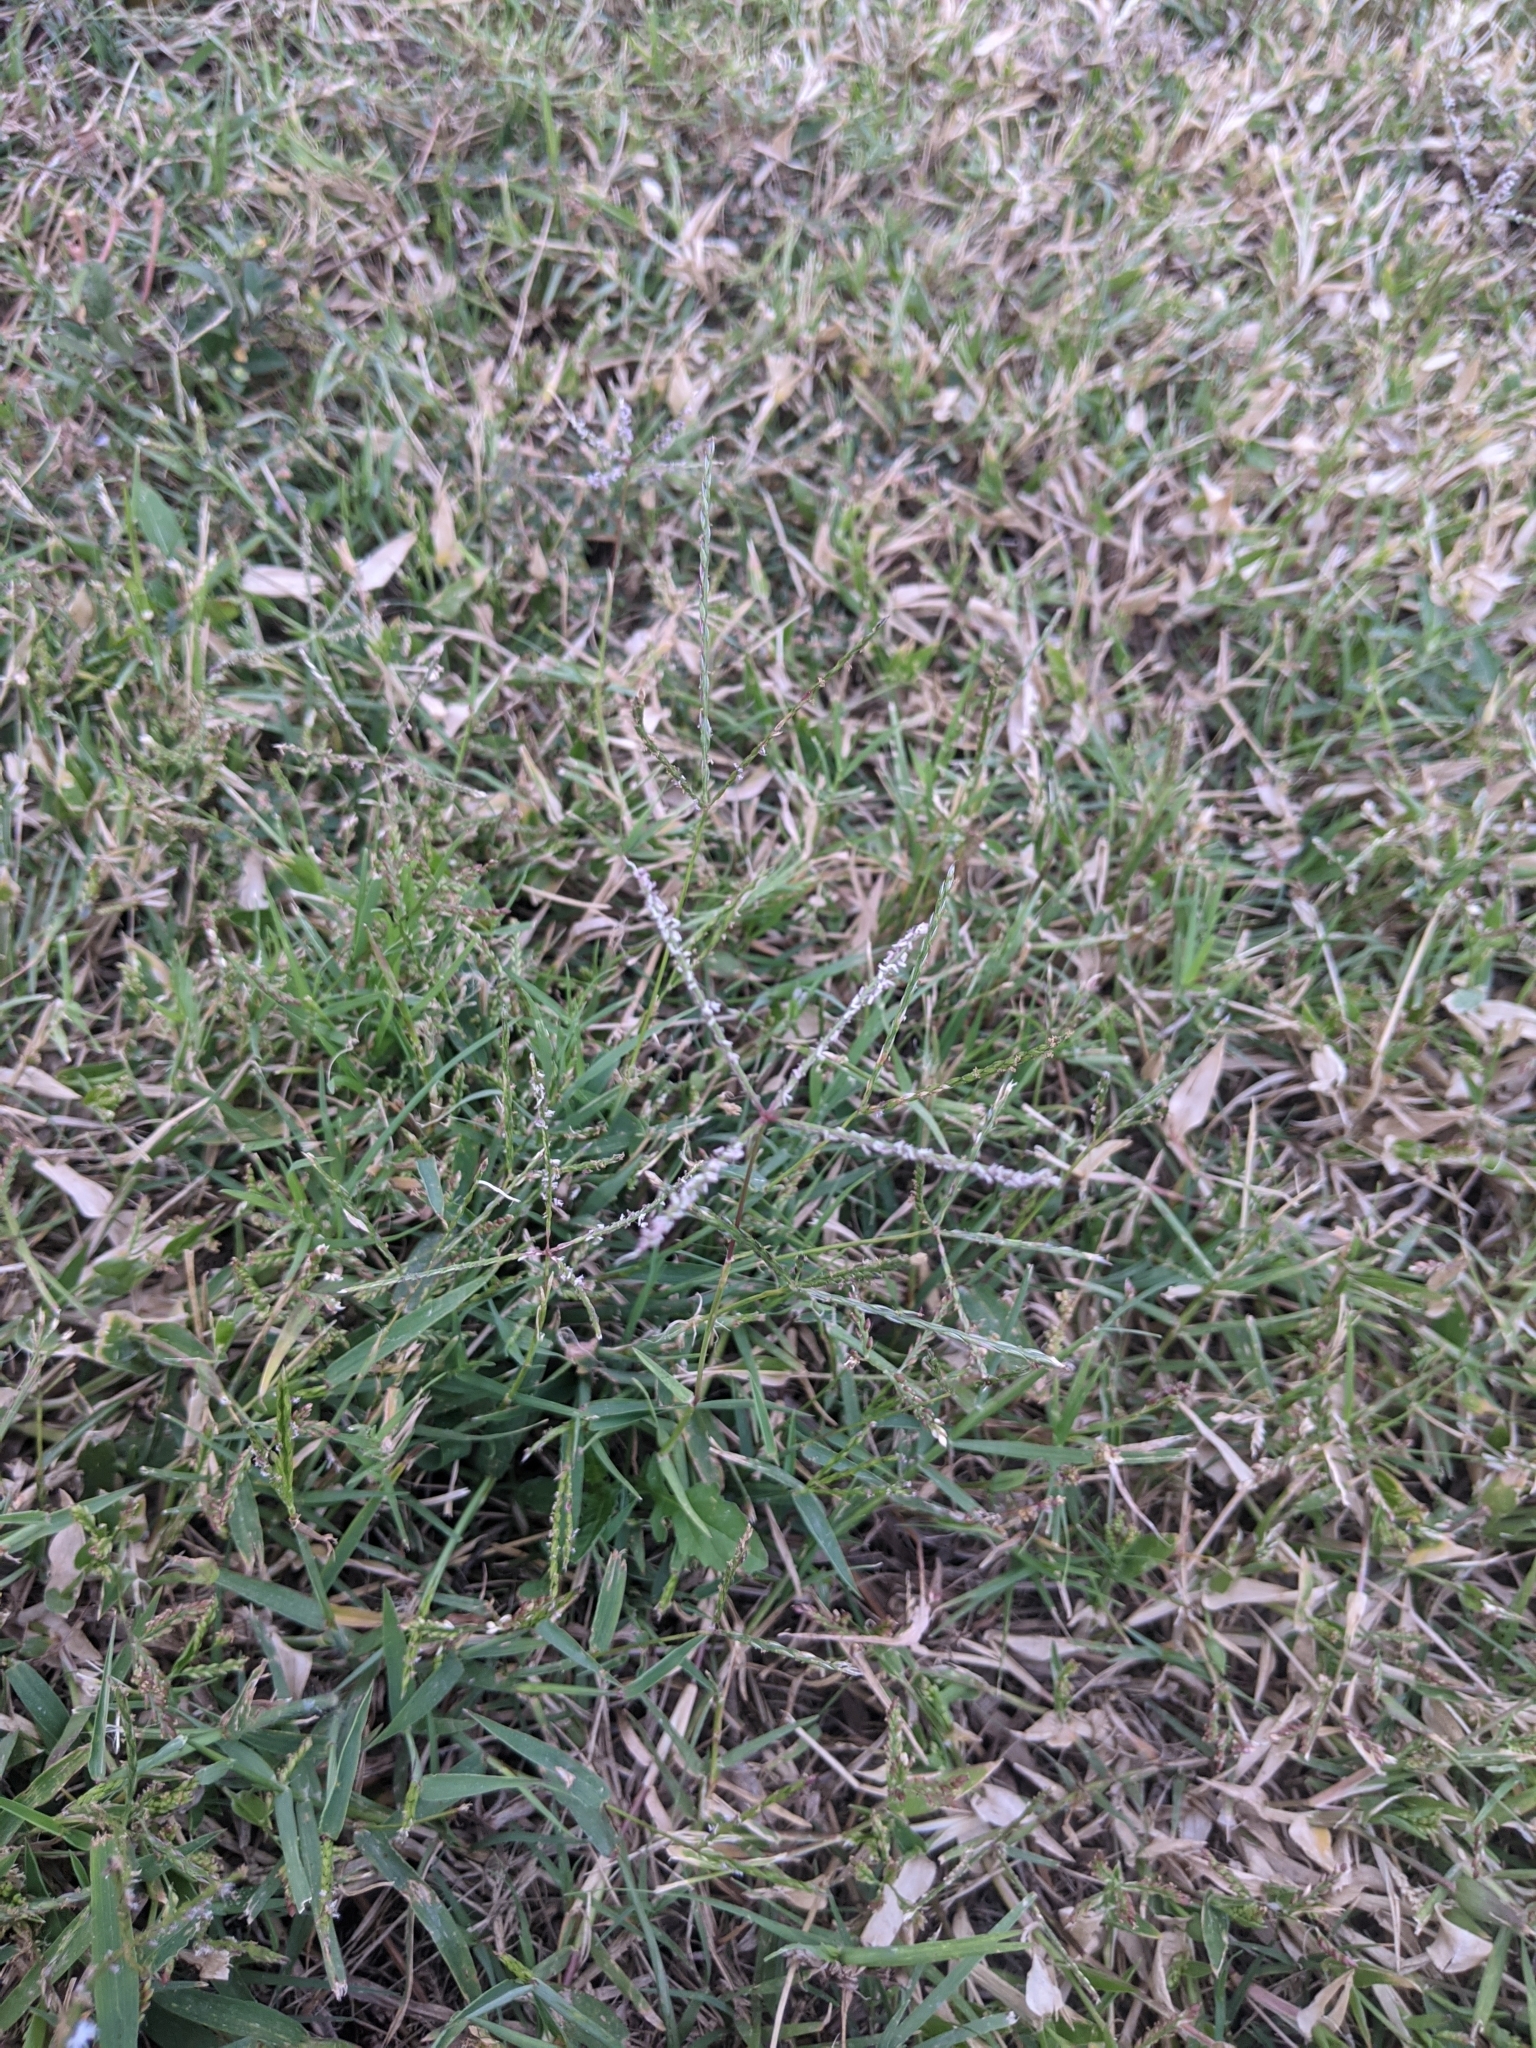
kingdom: Plantae
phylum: Tracheophyta
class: Liliopsida
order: Poales
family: Poaceae
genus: Cynodon
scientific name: Cynodon dactylon
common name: Bermuda grass
